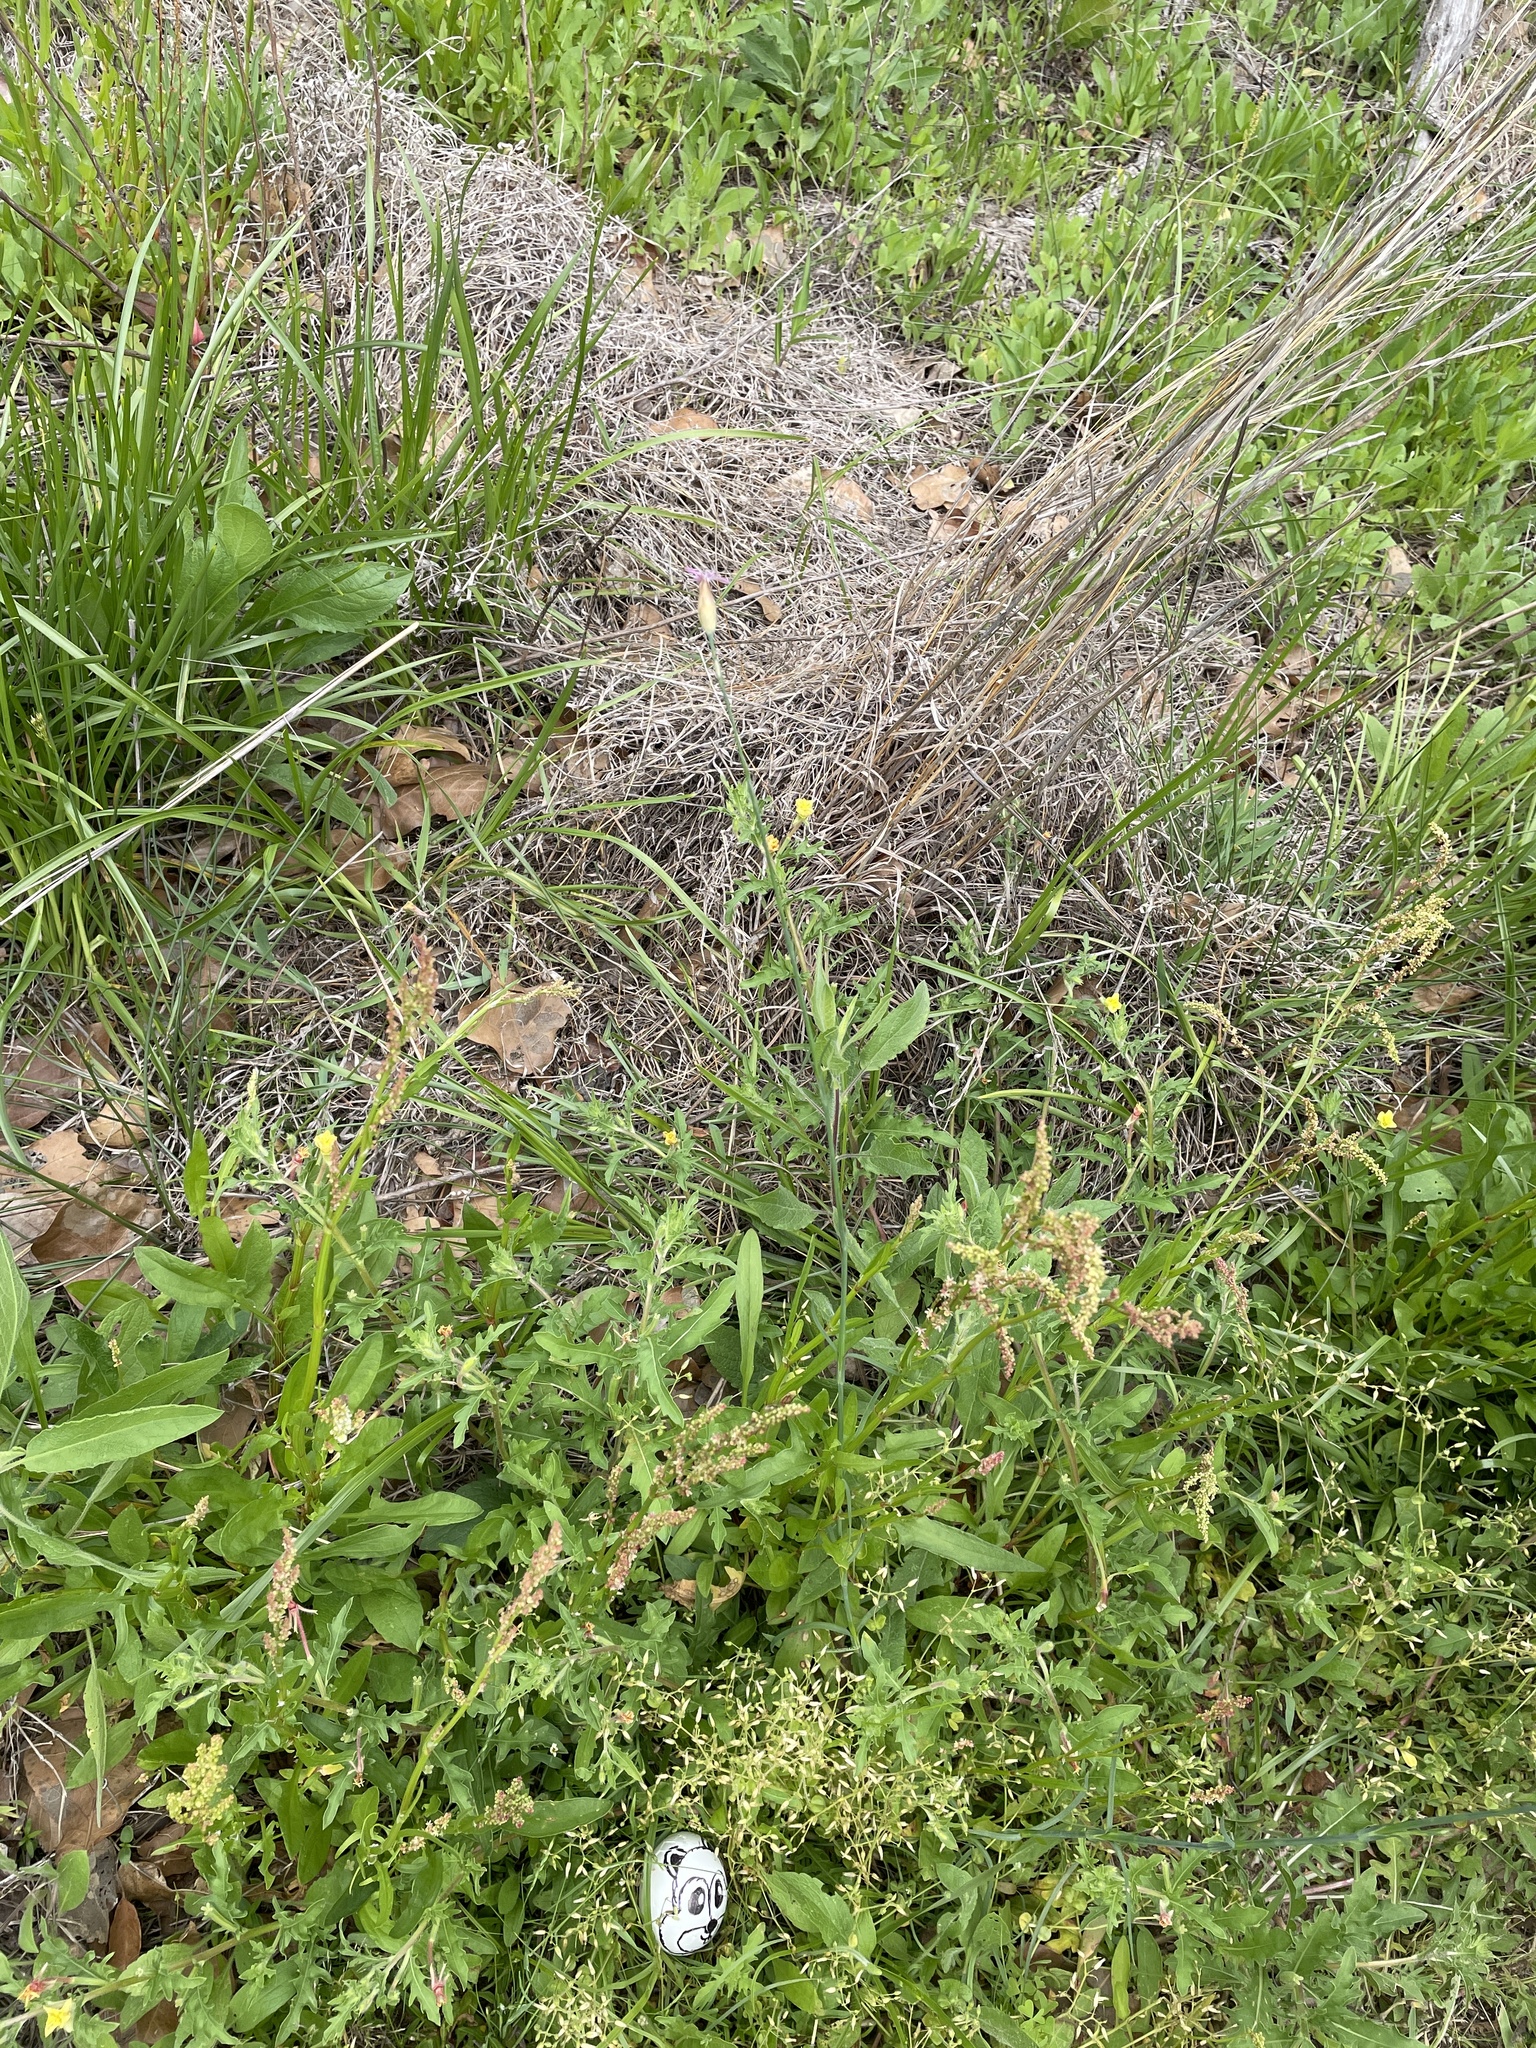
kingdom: Plantae
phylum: Tracheophyta
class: Magnoliopsida
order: Caryophyllales
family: Caryophyllaceae
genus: Petrorhagia
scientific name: Petrorhagia dubia
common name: Hairypink
